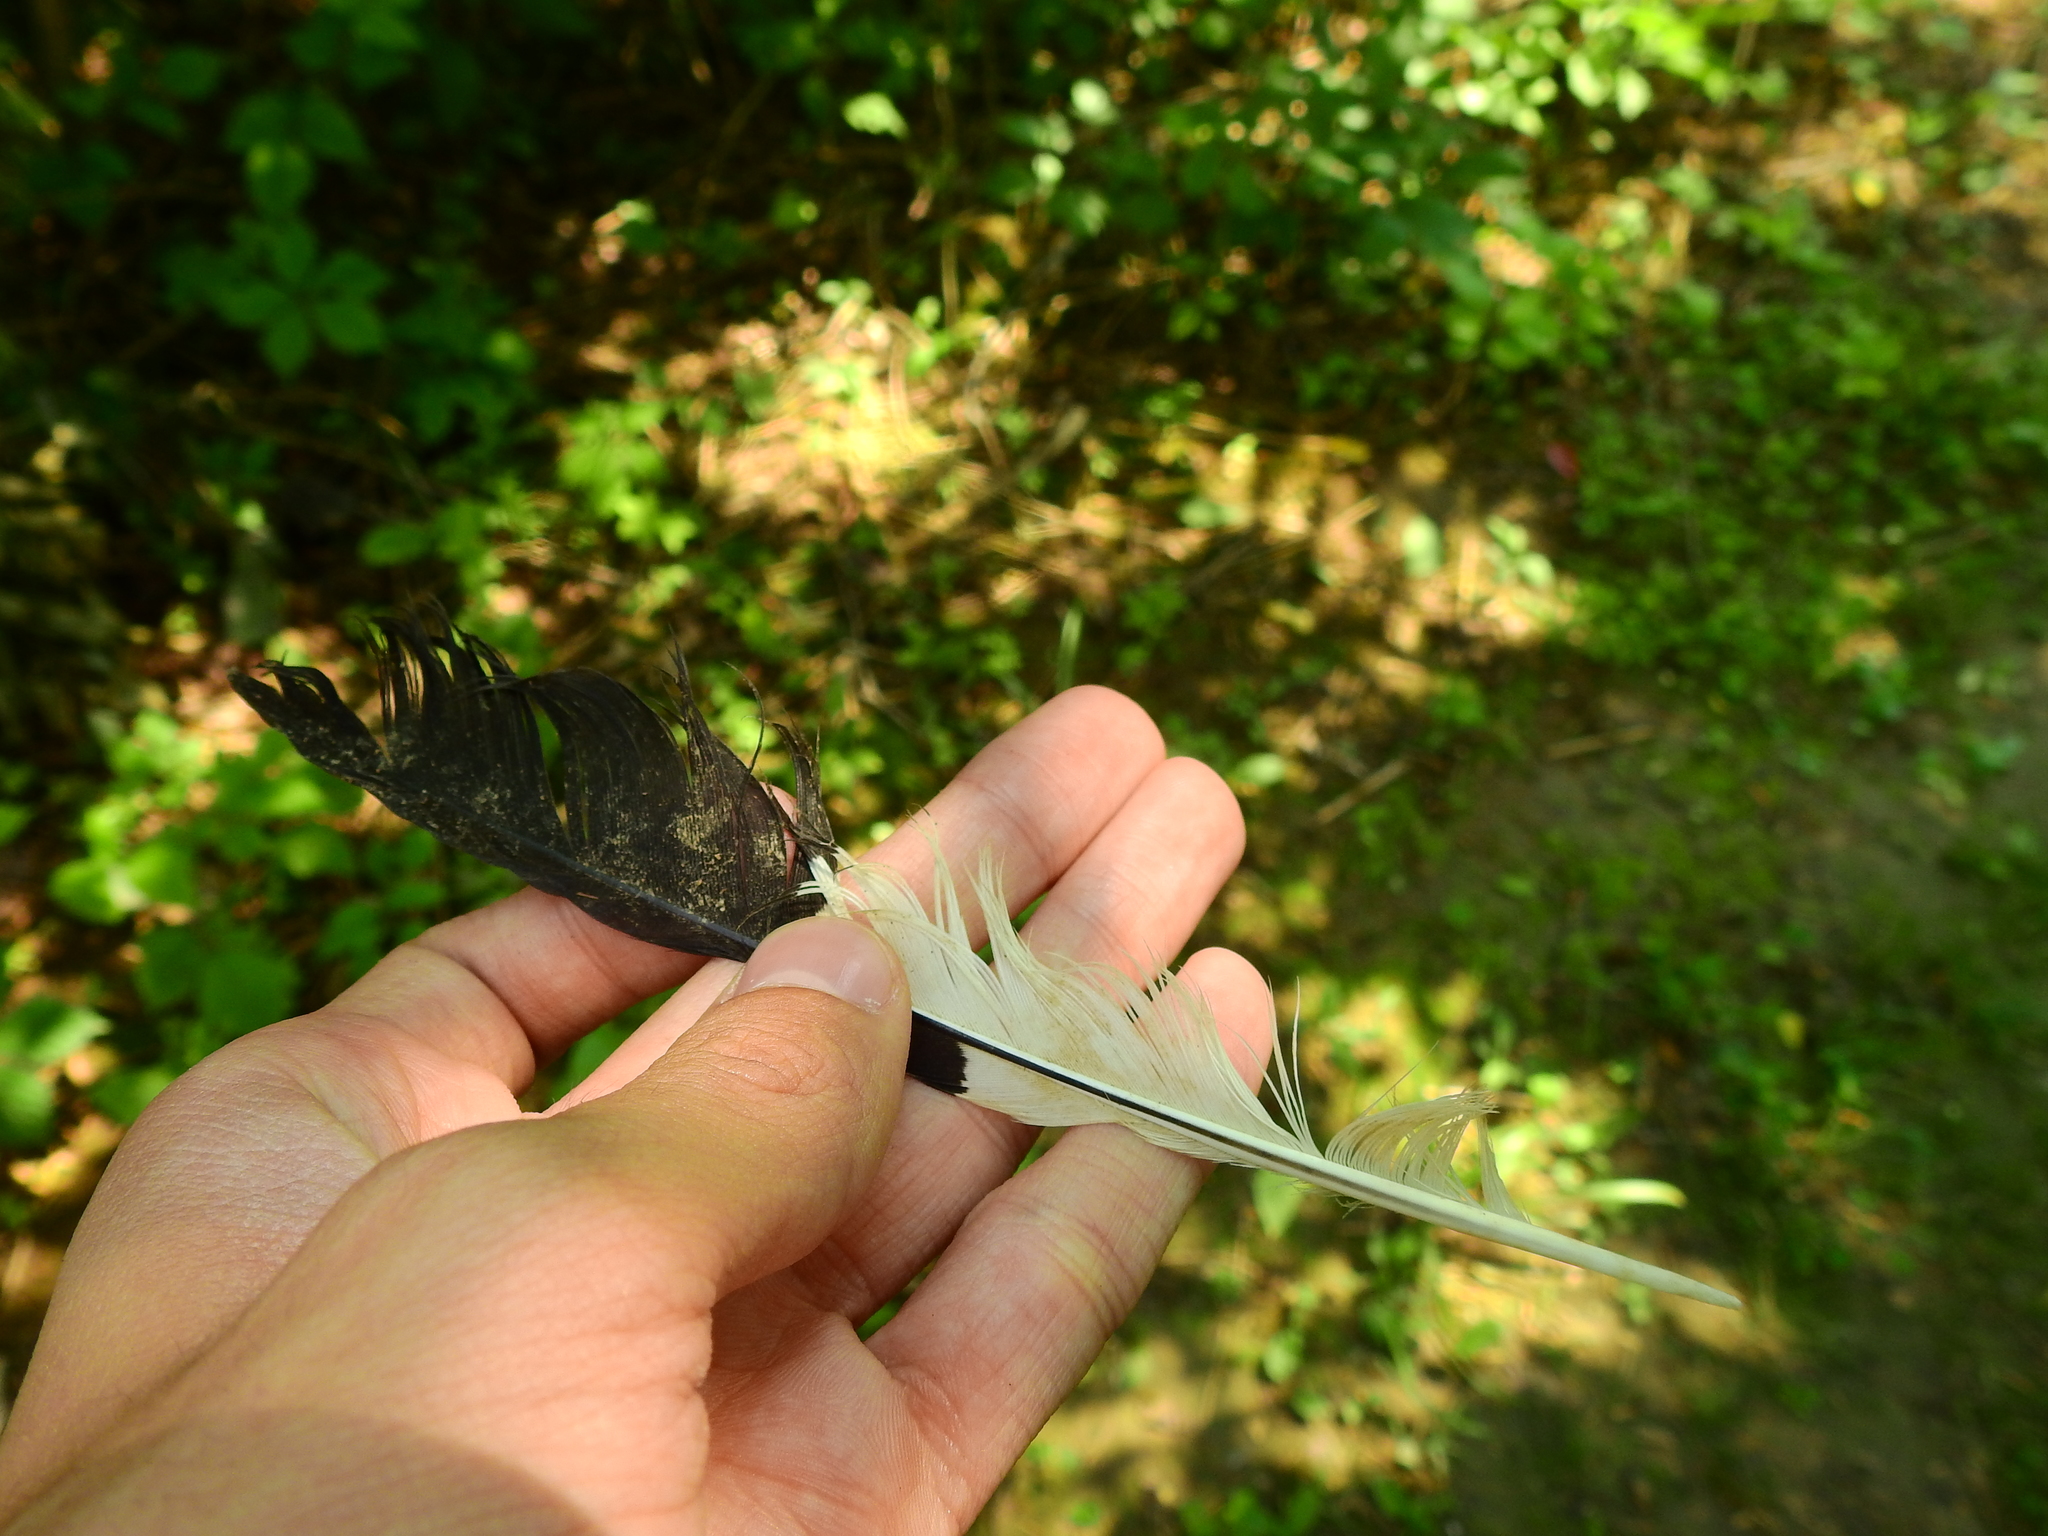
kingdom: Animalia
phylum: Chordata
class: Aves
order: Piciformes
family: Picidae
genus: Dryocopus
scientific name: Dryocopus pileatus
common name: Pileated woodpecker
